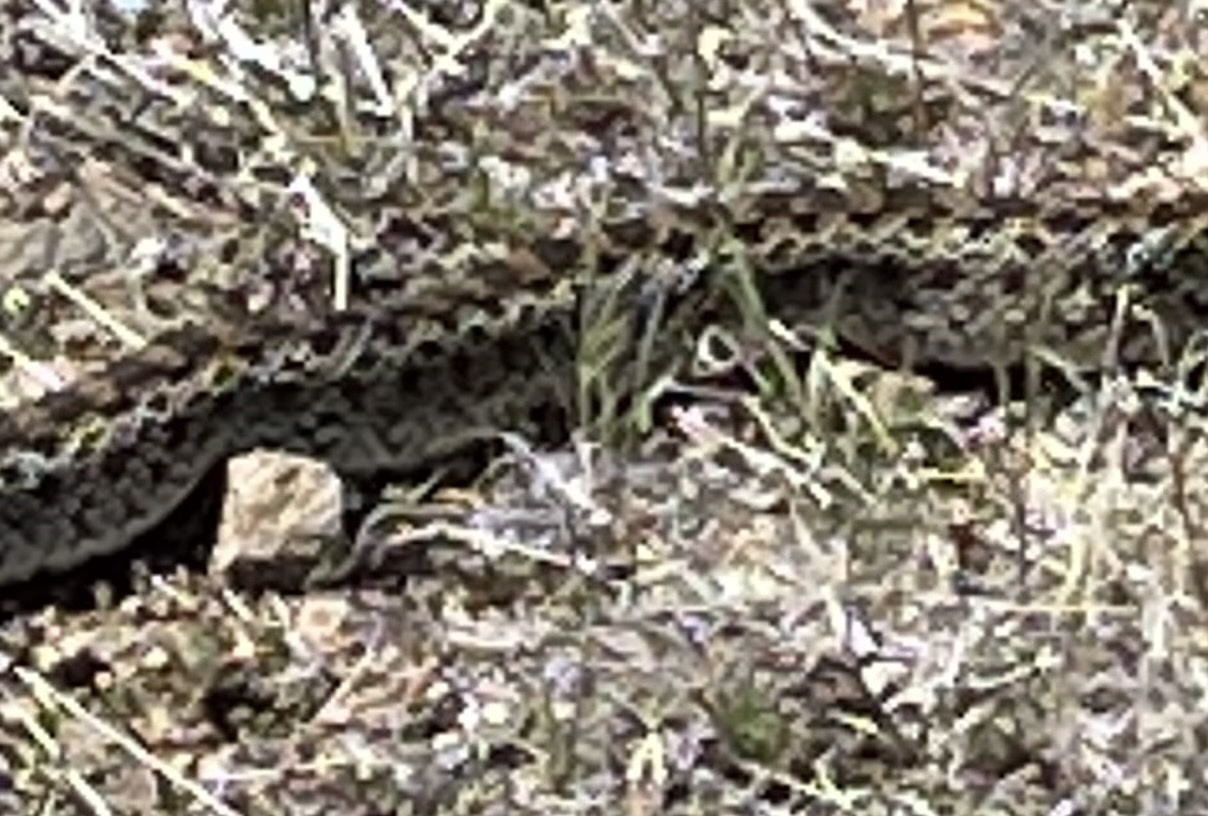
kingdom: Animalia
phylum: Chordata
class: Squamata
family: Colubridae
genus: Pituophis
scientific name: Pituophis catenifer
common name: Gopher snake
